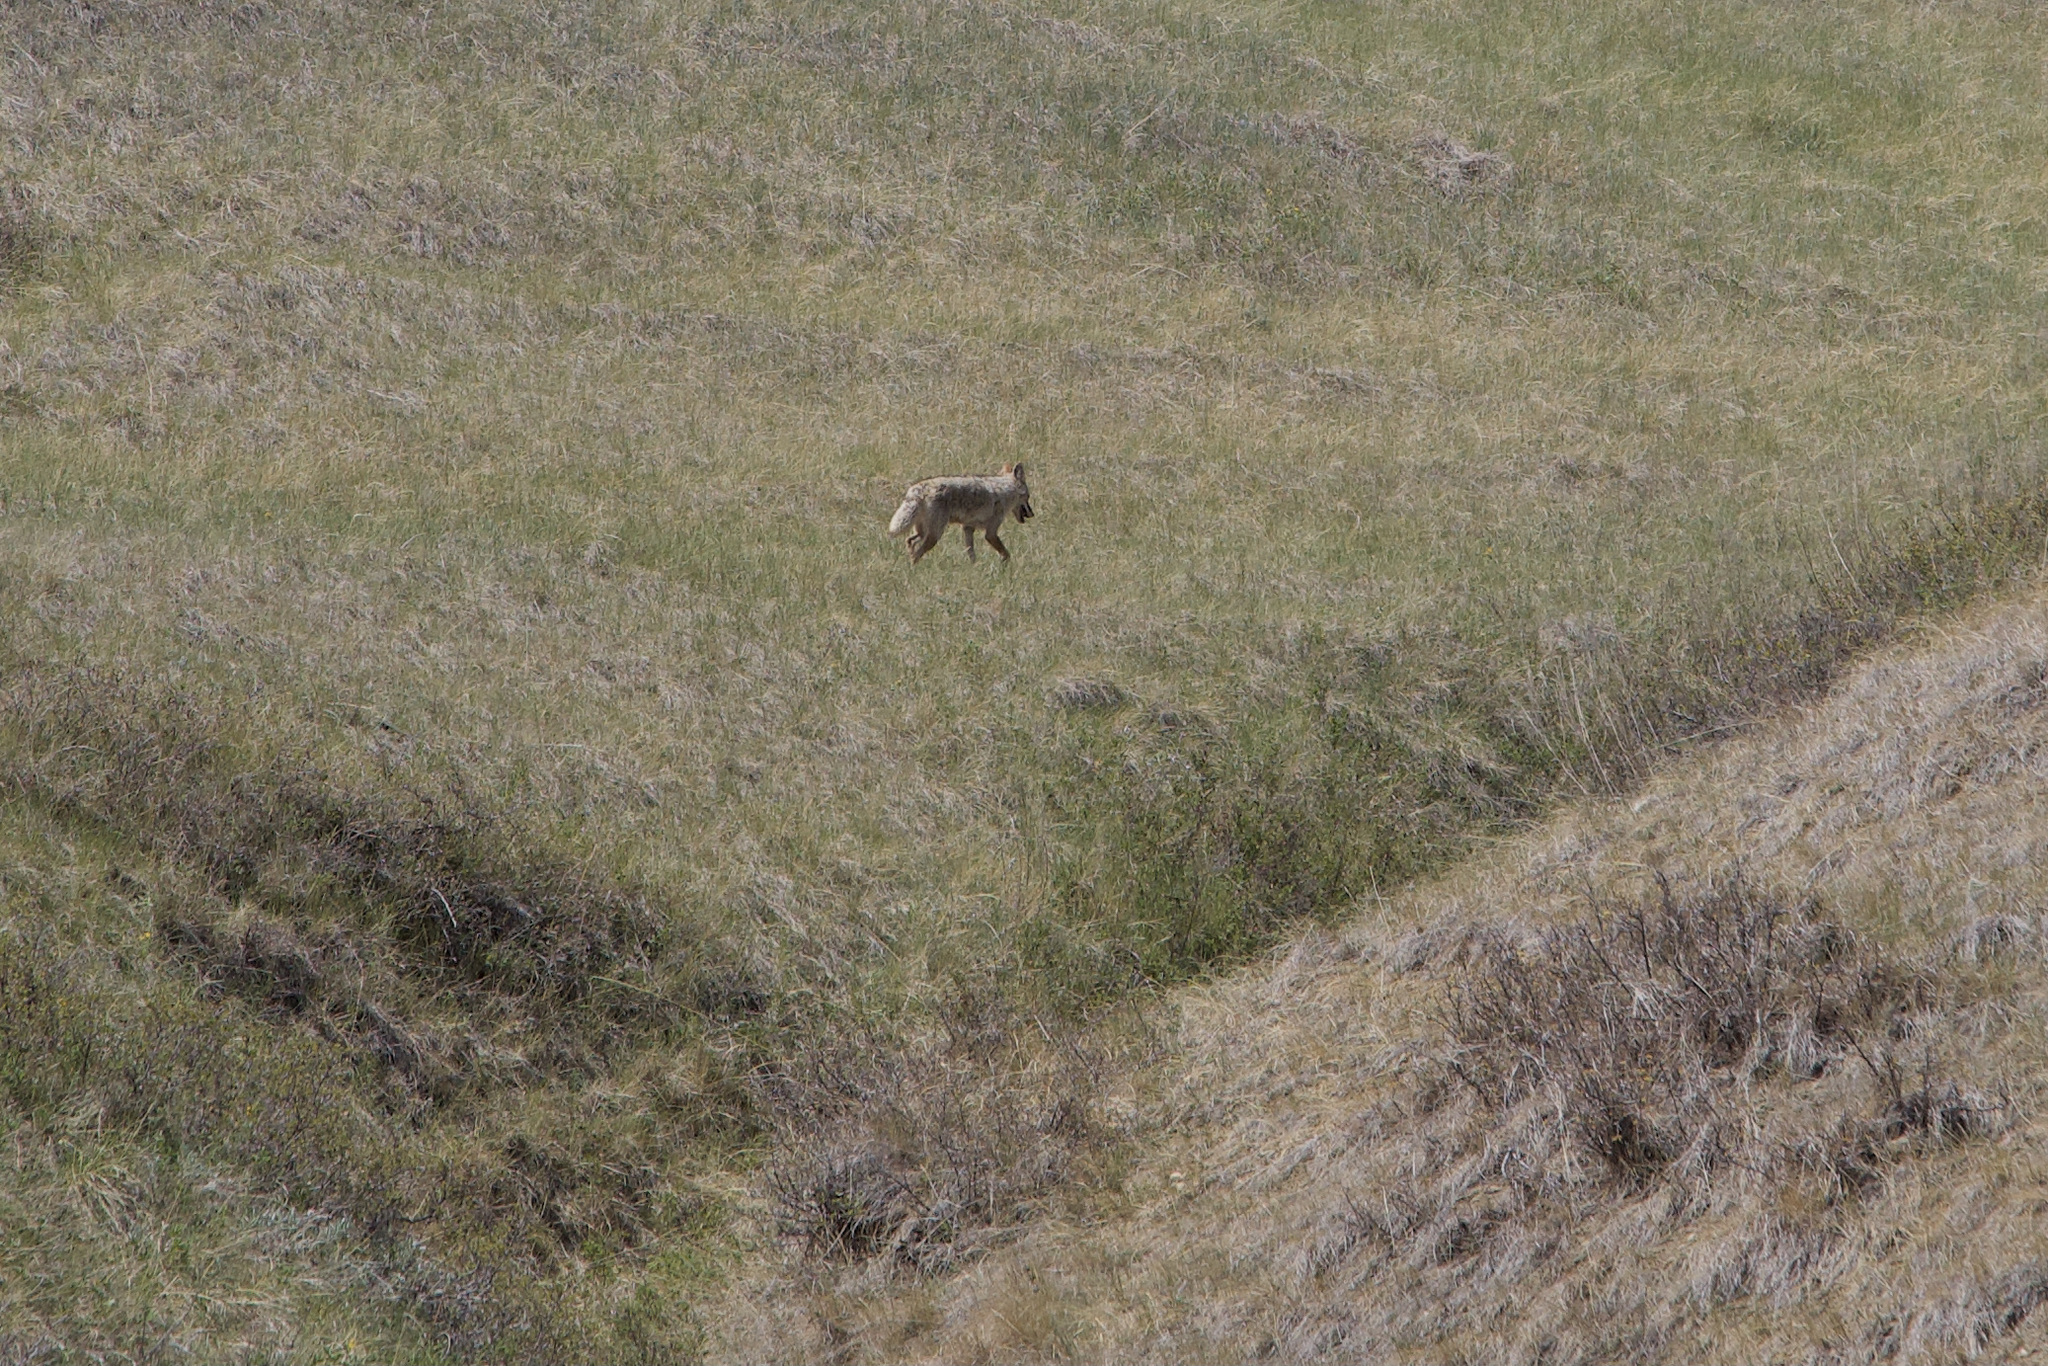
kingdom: Animalia
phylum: Chordata
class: Mammalia
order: Carnivora
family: Canidae
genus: Canis
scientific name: Canis latrans
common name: Coyote
